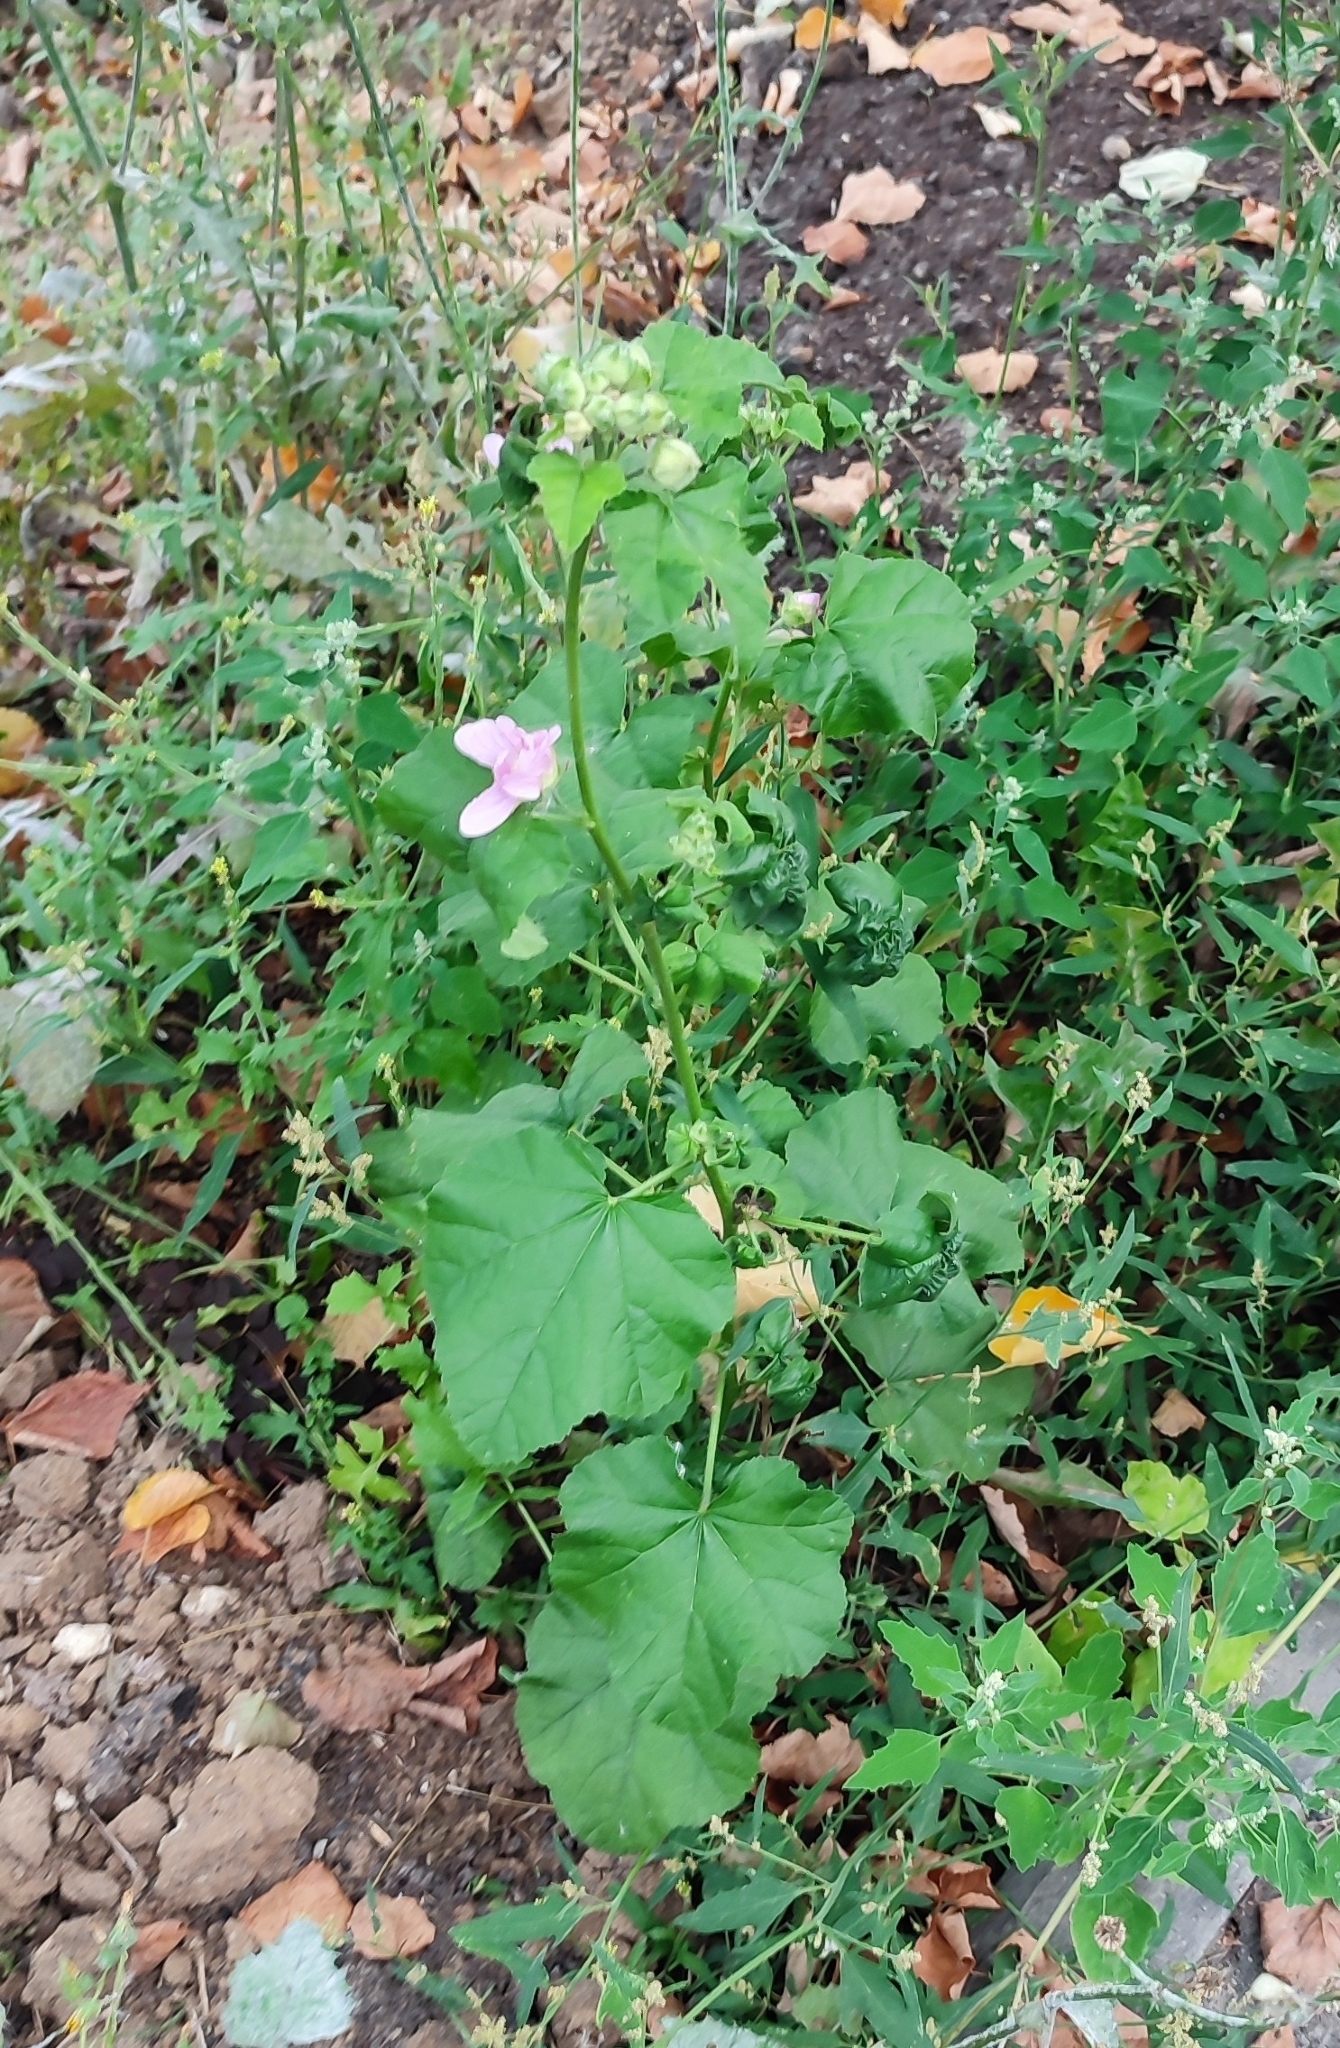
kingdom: Plantae
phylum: Tracheophyta
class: Magnoliopsida
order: Malvales
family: Malvaceae
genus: Malva
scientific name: Malva thuringiaca
